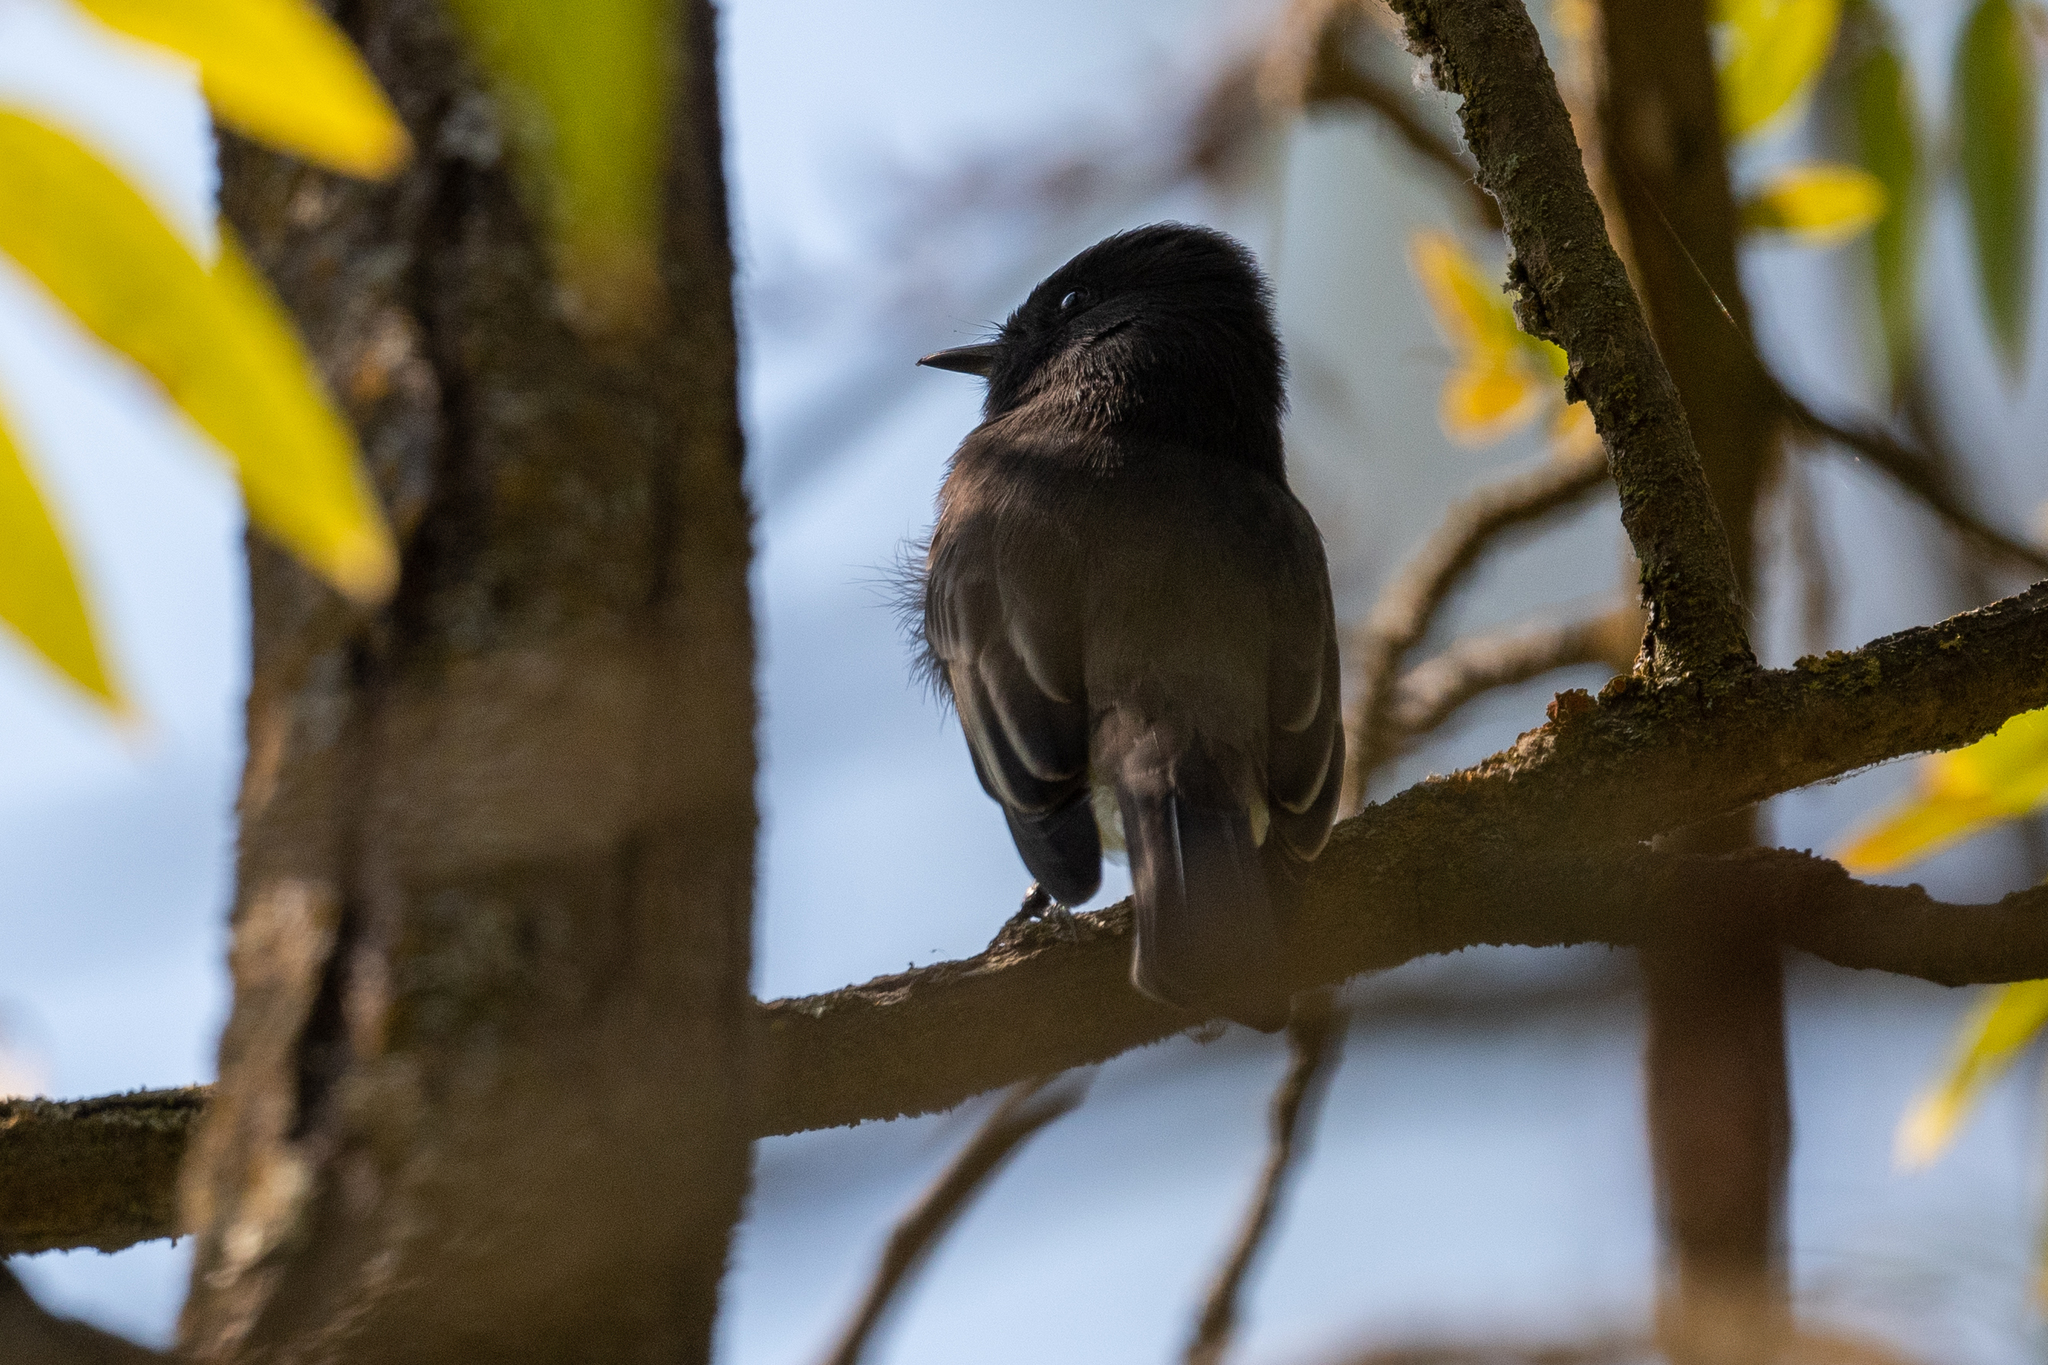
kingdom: Animalia
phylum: Chordata
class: Aves
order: Passeriformes
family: Tyrannidae
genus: Sayornis
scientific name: Sayornis nigricans
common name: Black phoebe
